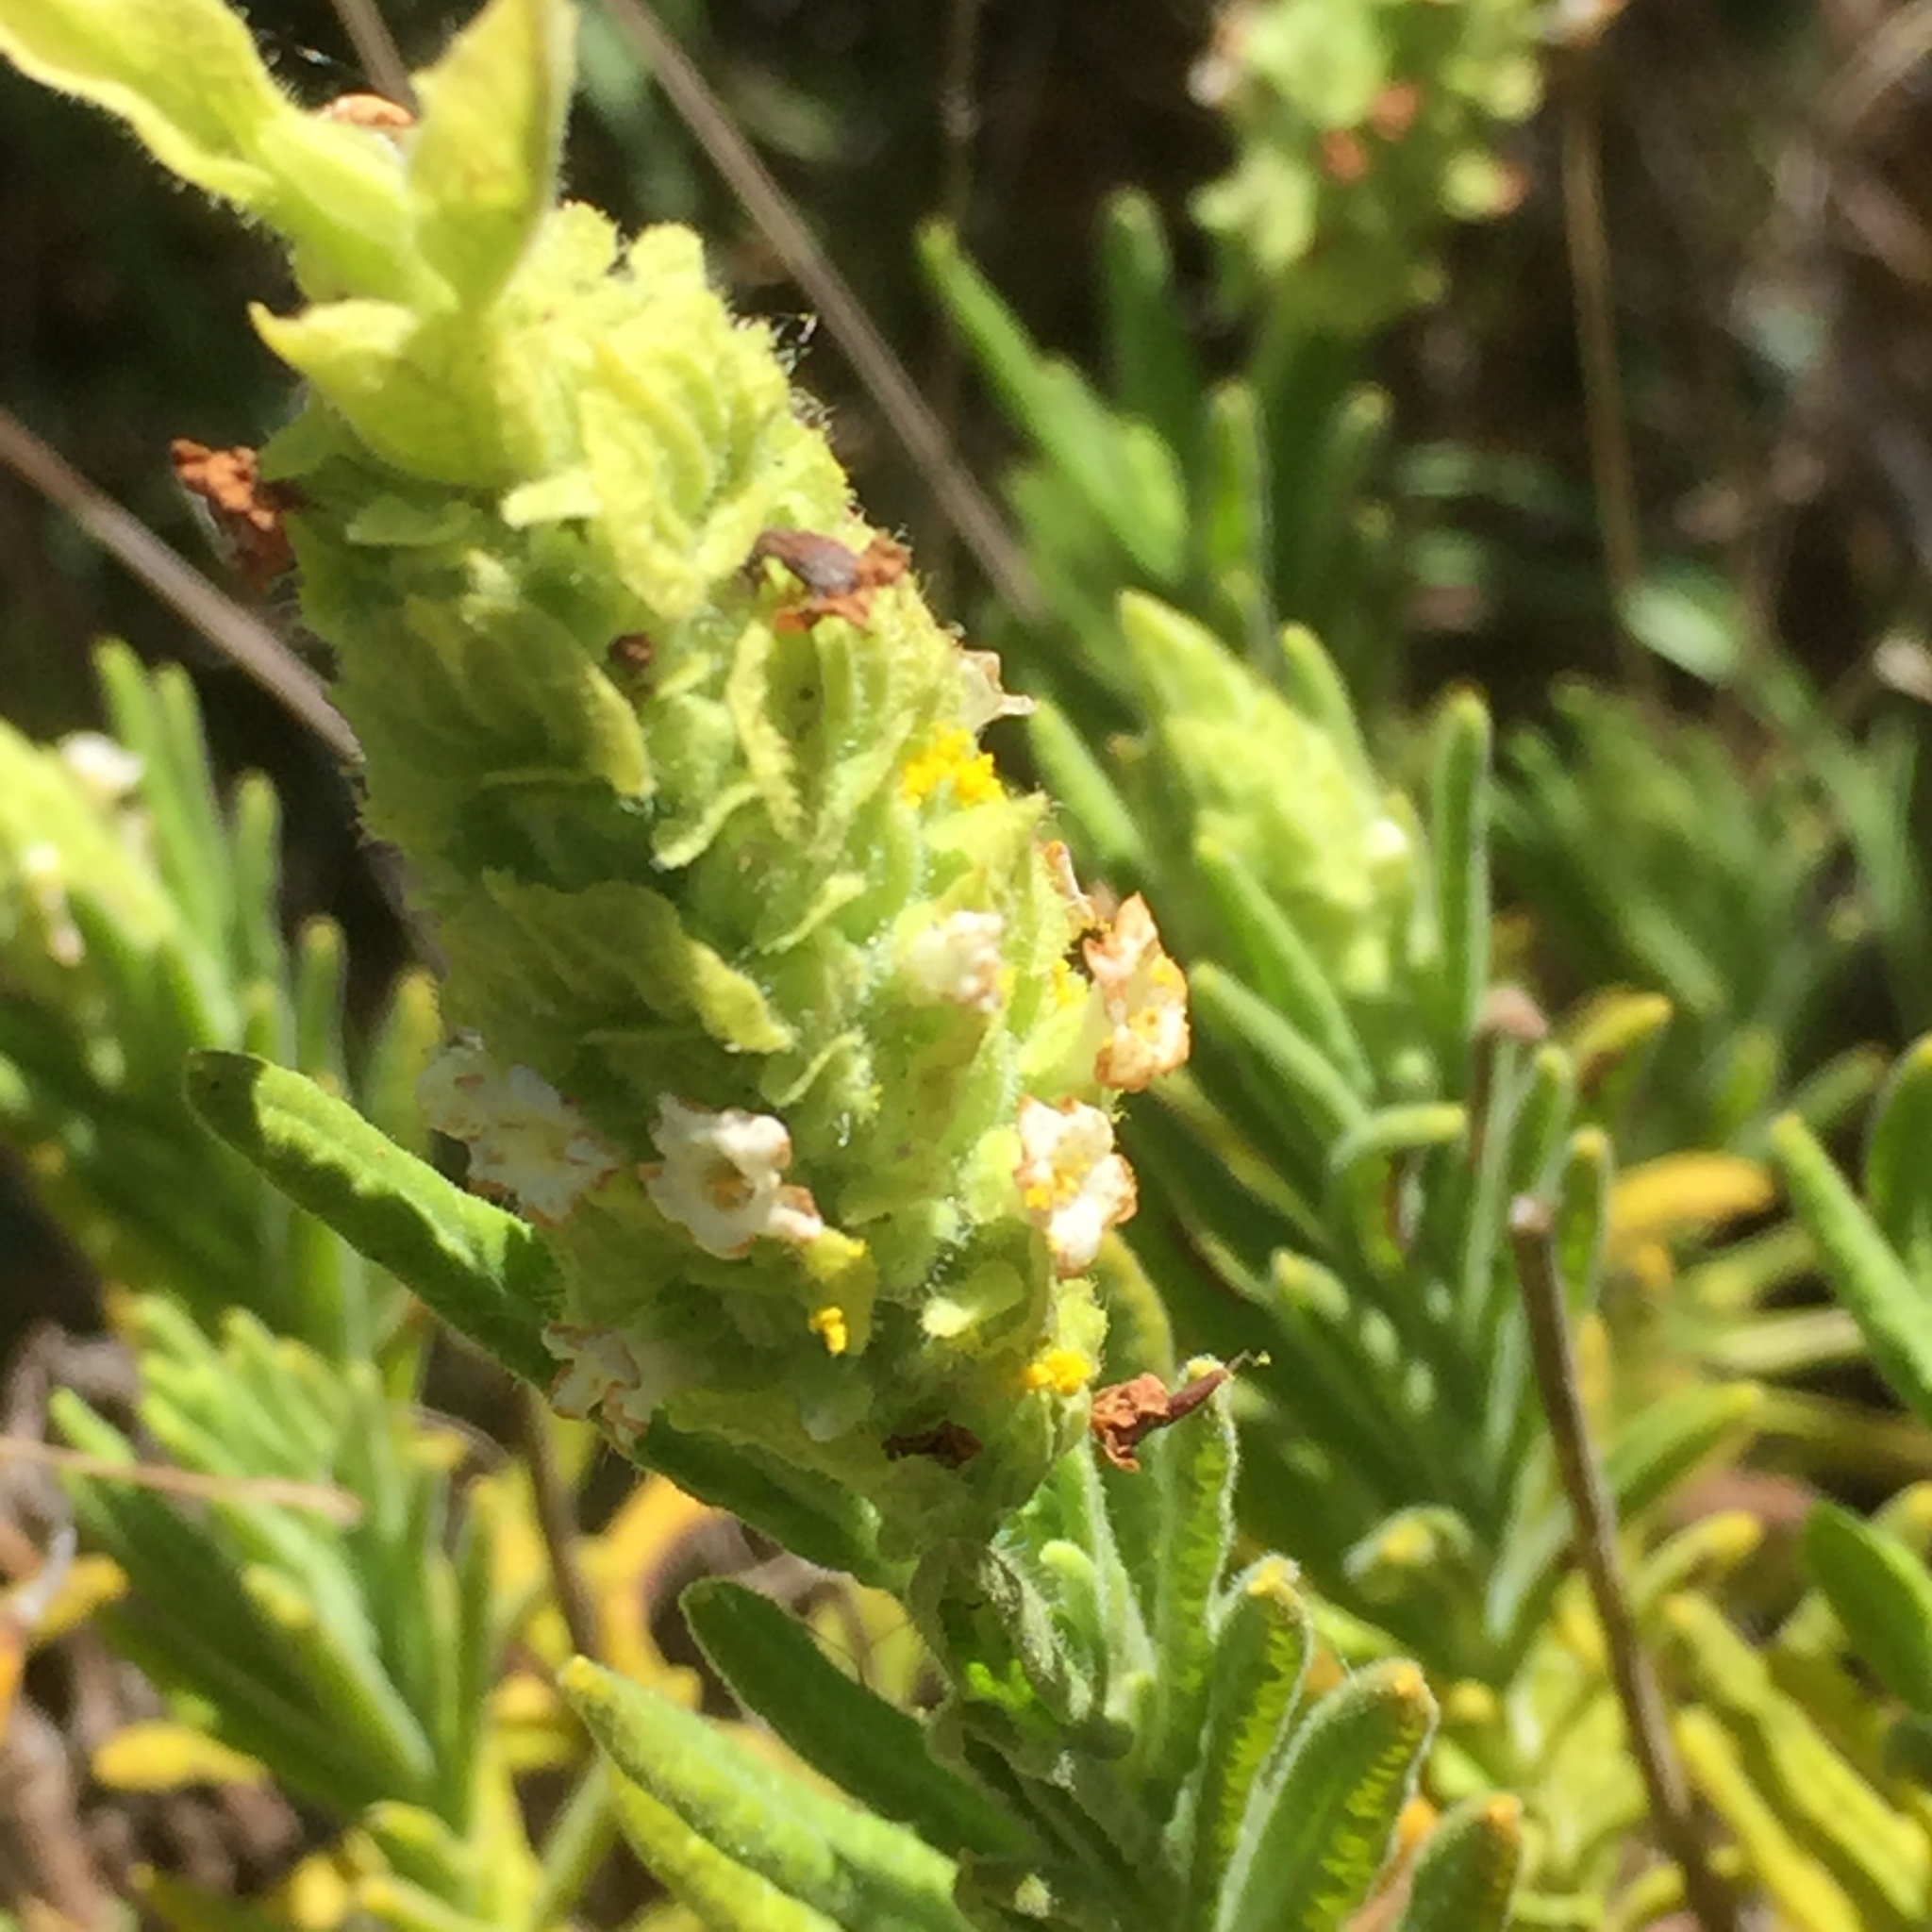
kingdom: Plantae
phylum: Tracheophyta
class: Magnoliopsida
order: Lamiales
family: Lamiaceae
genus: Lavandula
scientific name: Lavandula viridis
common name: Green spanish lavender
